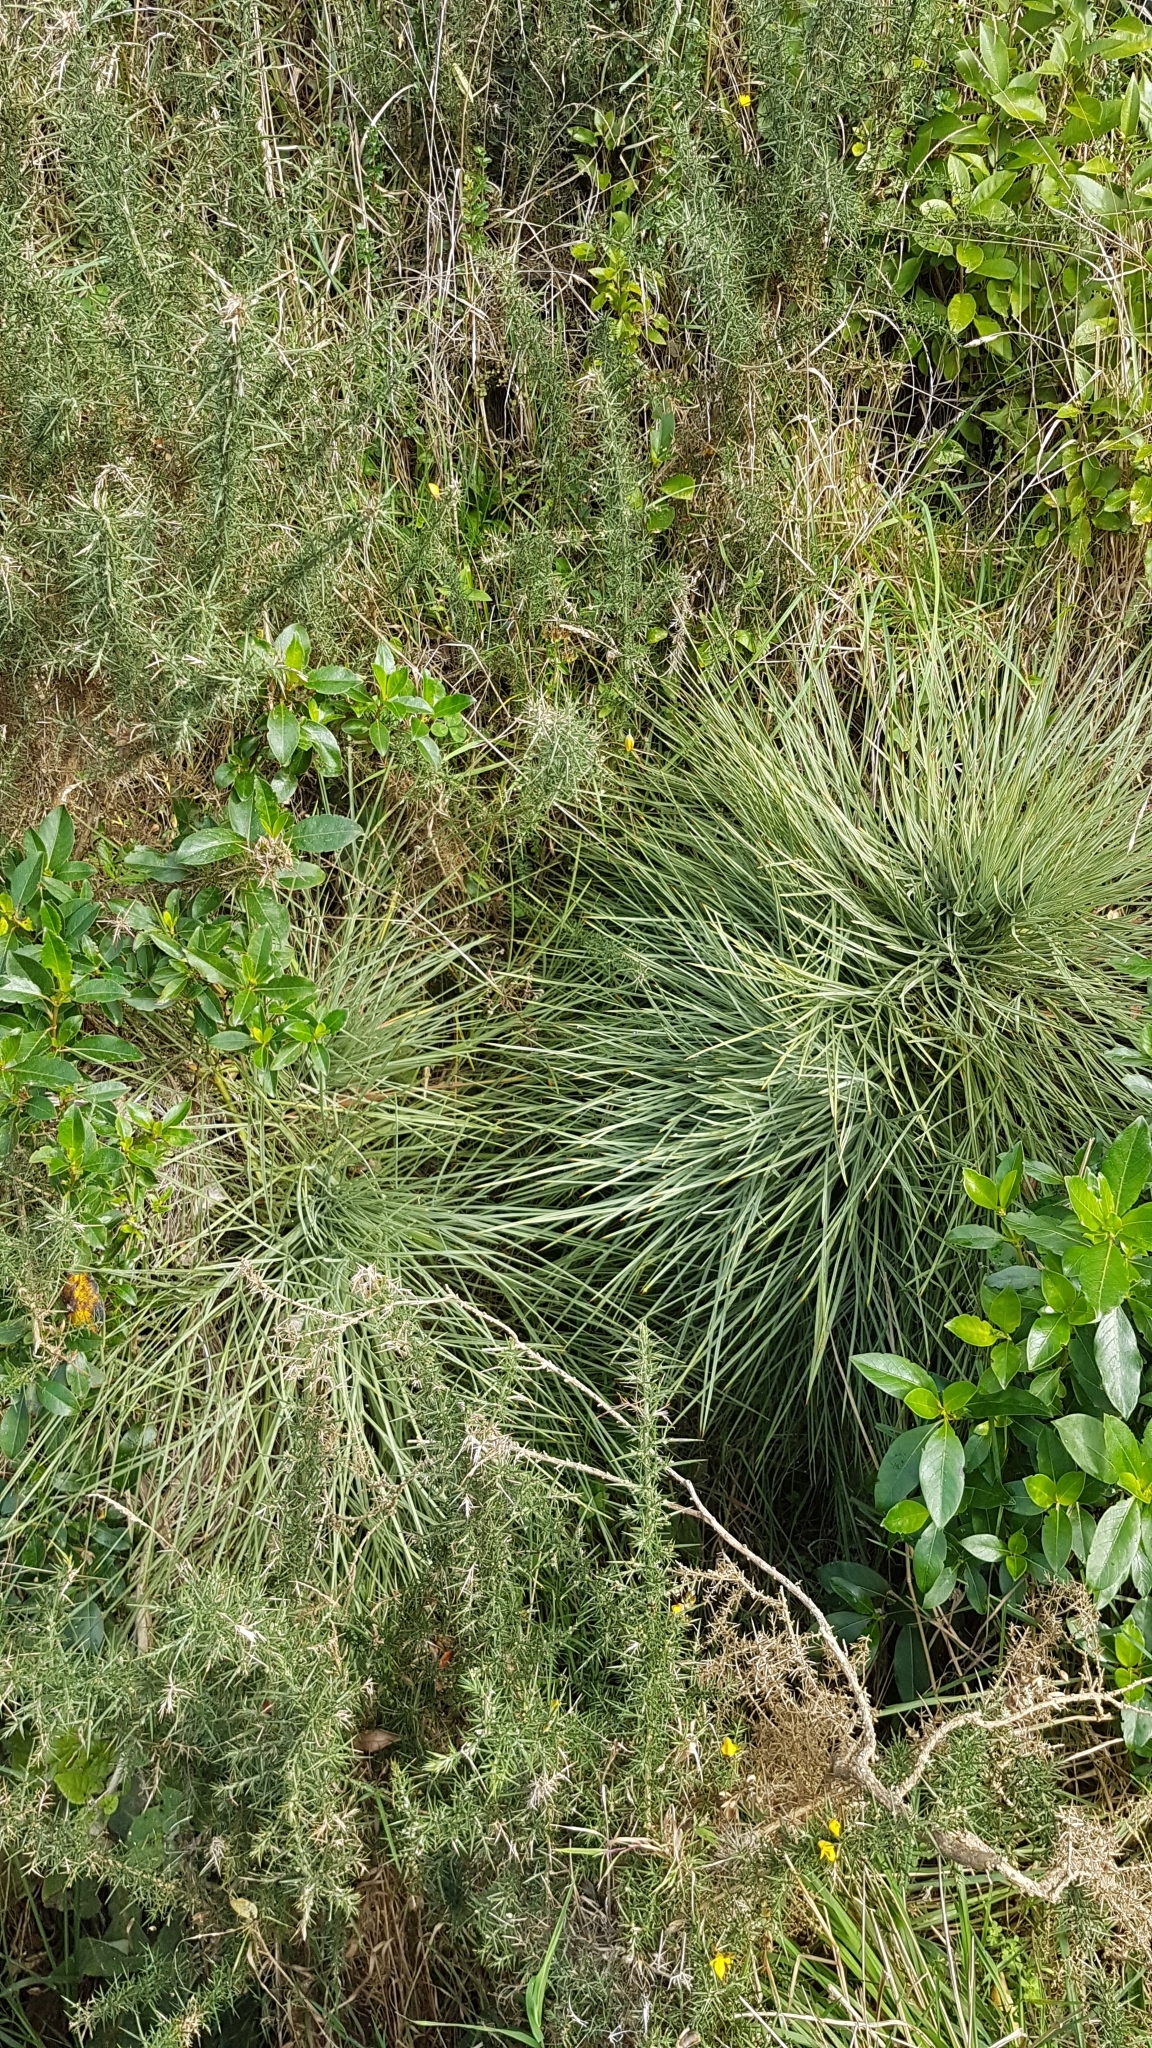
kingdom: Plantae
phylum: Tracheophyta
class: Magnoliopsida
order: Apiales
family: Apiaceae
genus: Aciphylla
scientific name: Aciphylla squarrosa
